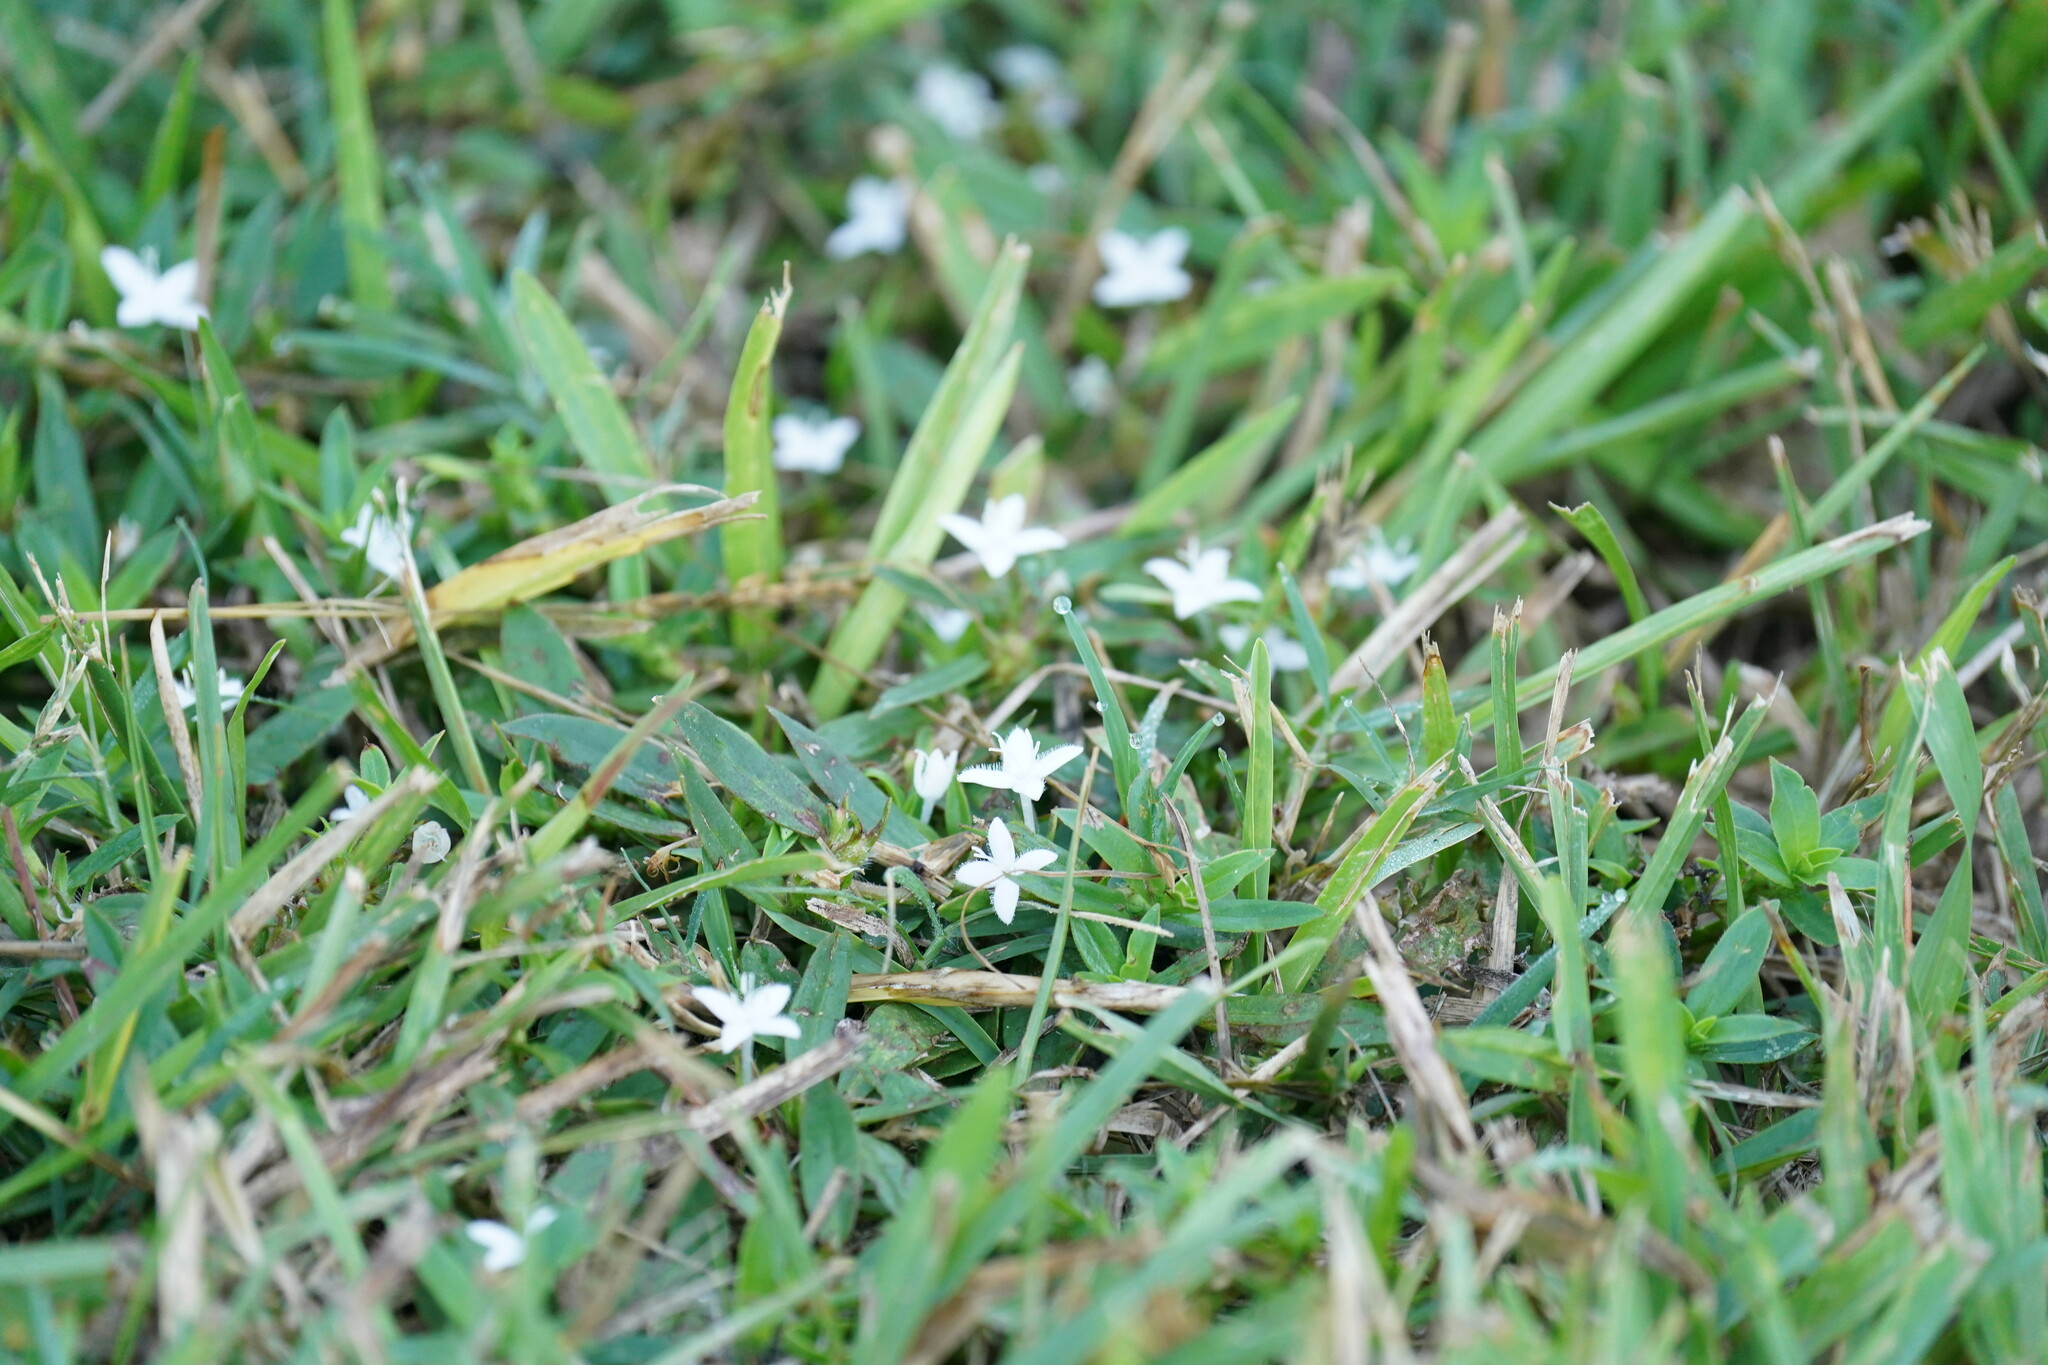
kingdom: Plantae
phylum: Tracheophyta
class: Magnoliopsida
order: Gentianales
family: Rubiaceae
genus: Diodia
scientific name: Diodia virginiana
